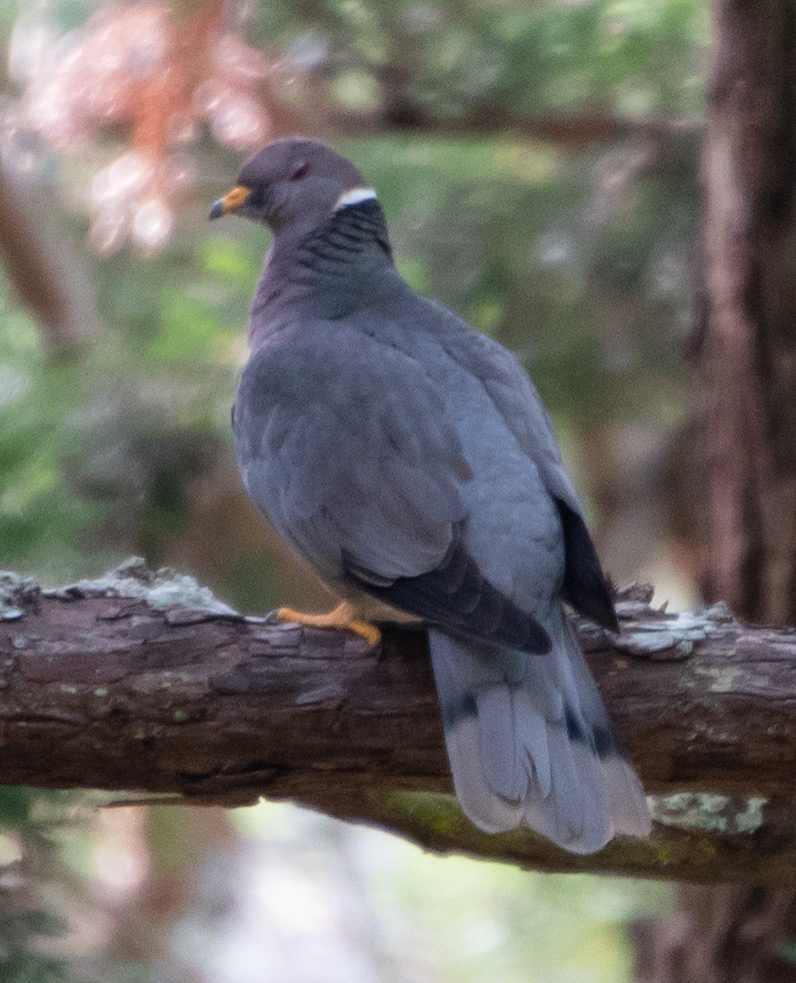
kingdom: Animalia
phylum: Chordata
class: Aves
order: Columbiformes
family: Columbidae
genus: Patagioenas
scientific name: Patagioenas fasciata
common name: Band-tailed pigeon
